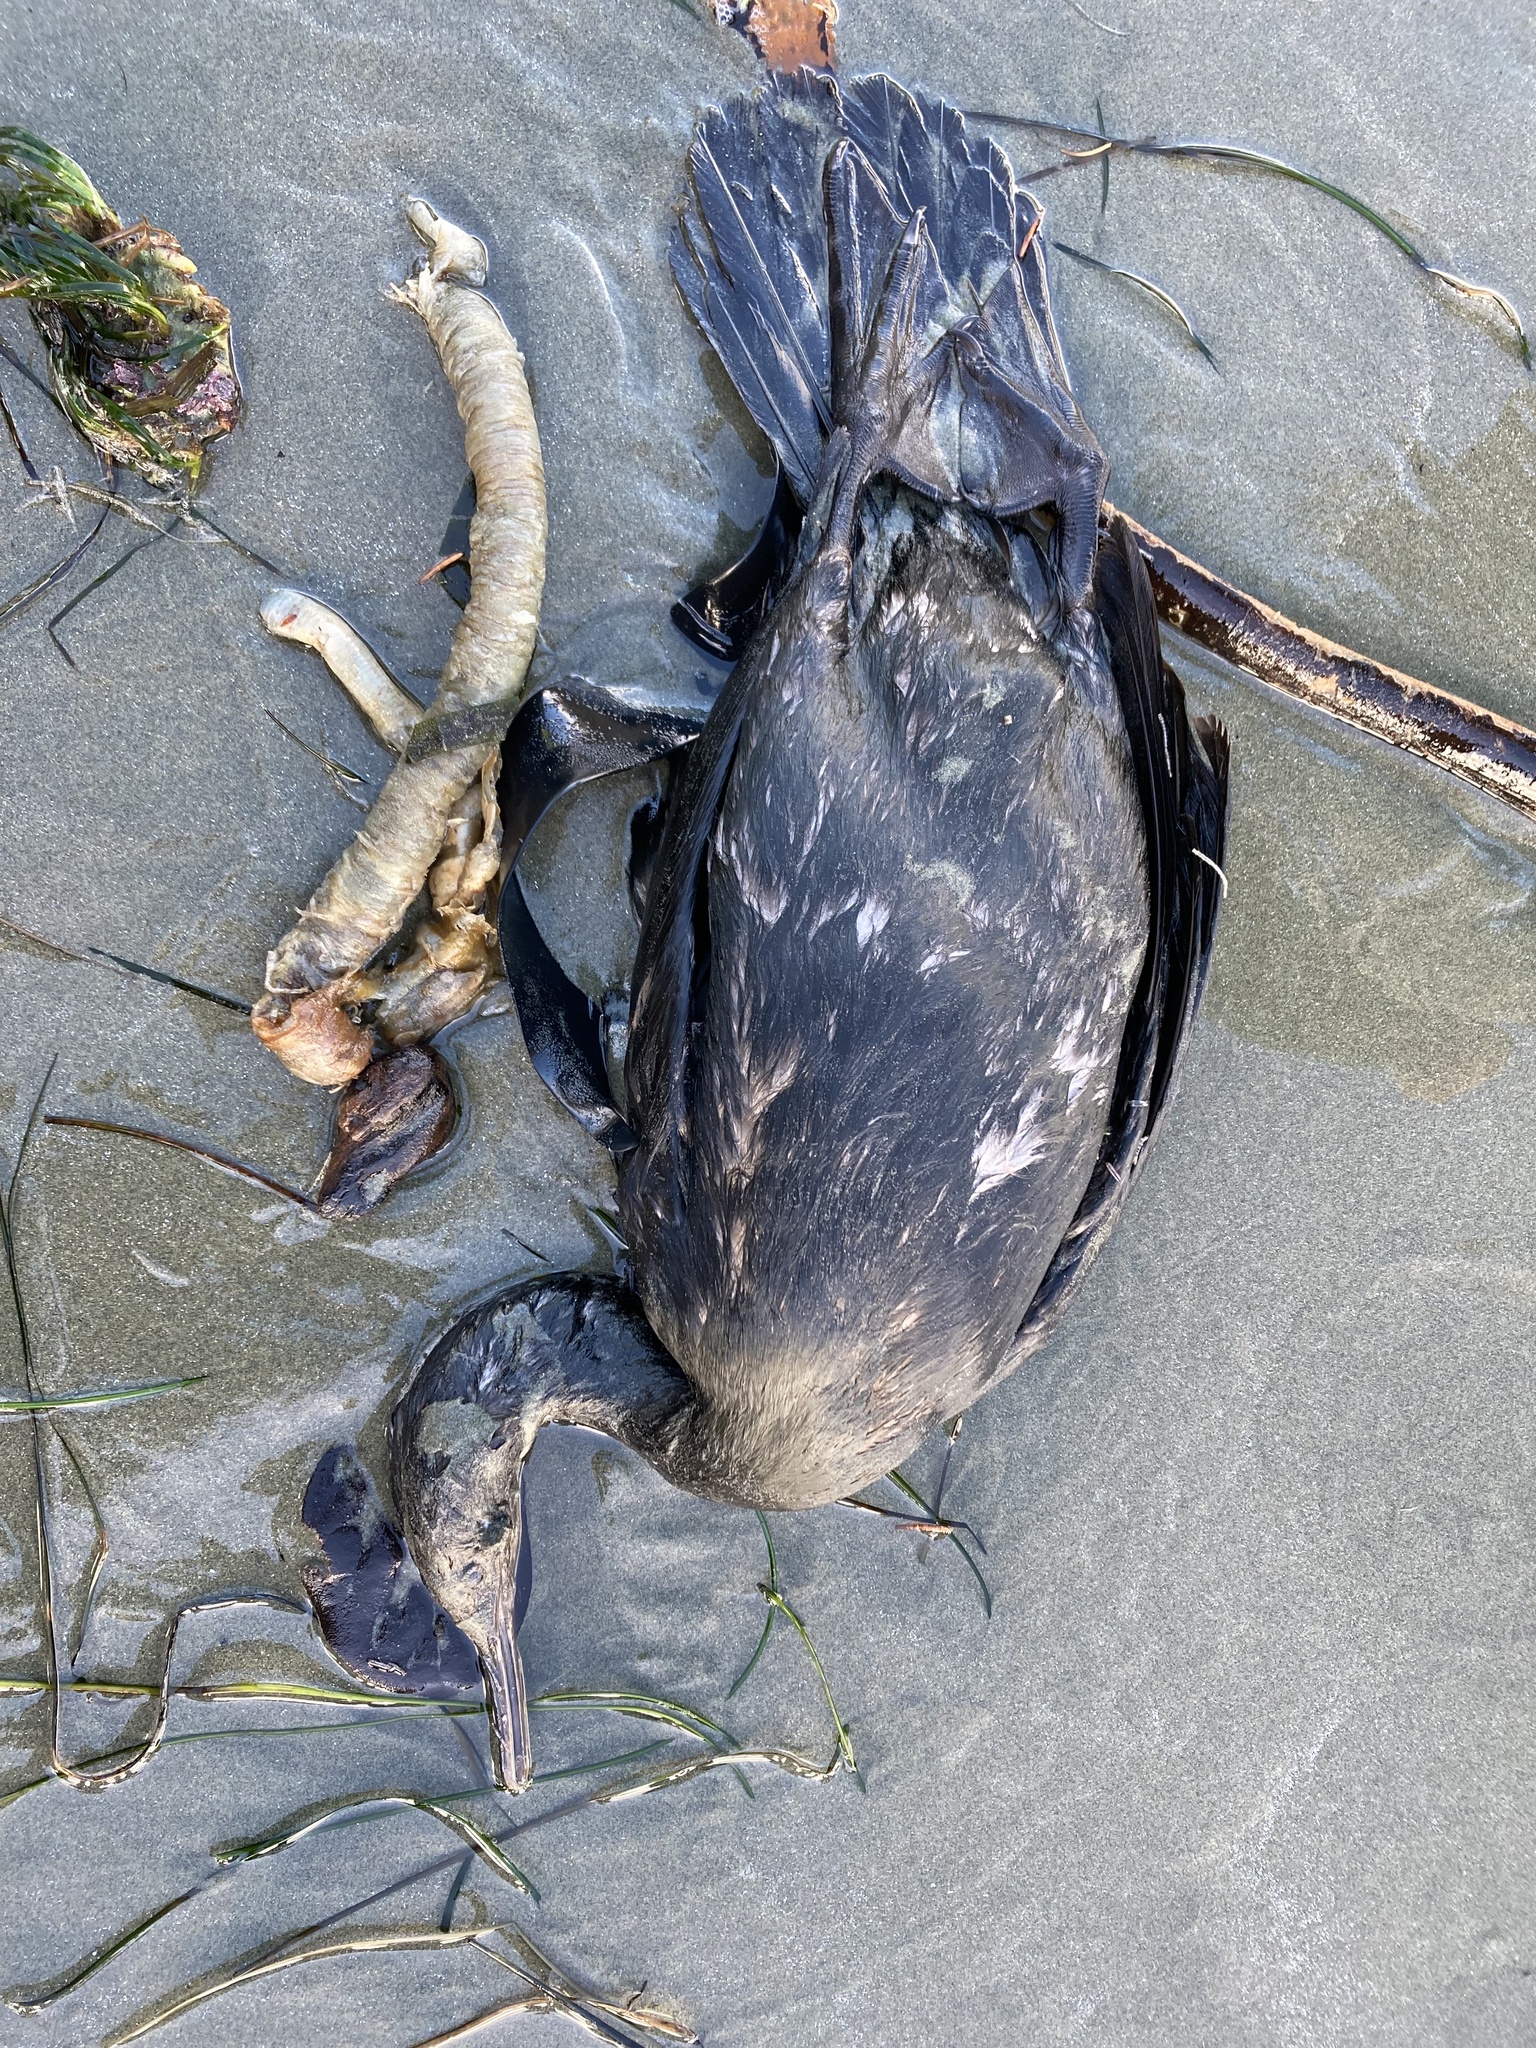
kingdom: Animalia
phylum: Chordata
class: Aves
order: Suliformes
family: Phalacrocoracidae
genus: Phalacrocorax
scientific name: Phalacrocorax pelagicus
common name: Pelagic cormorant
